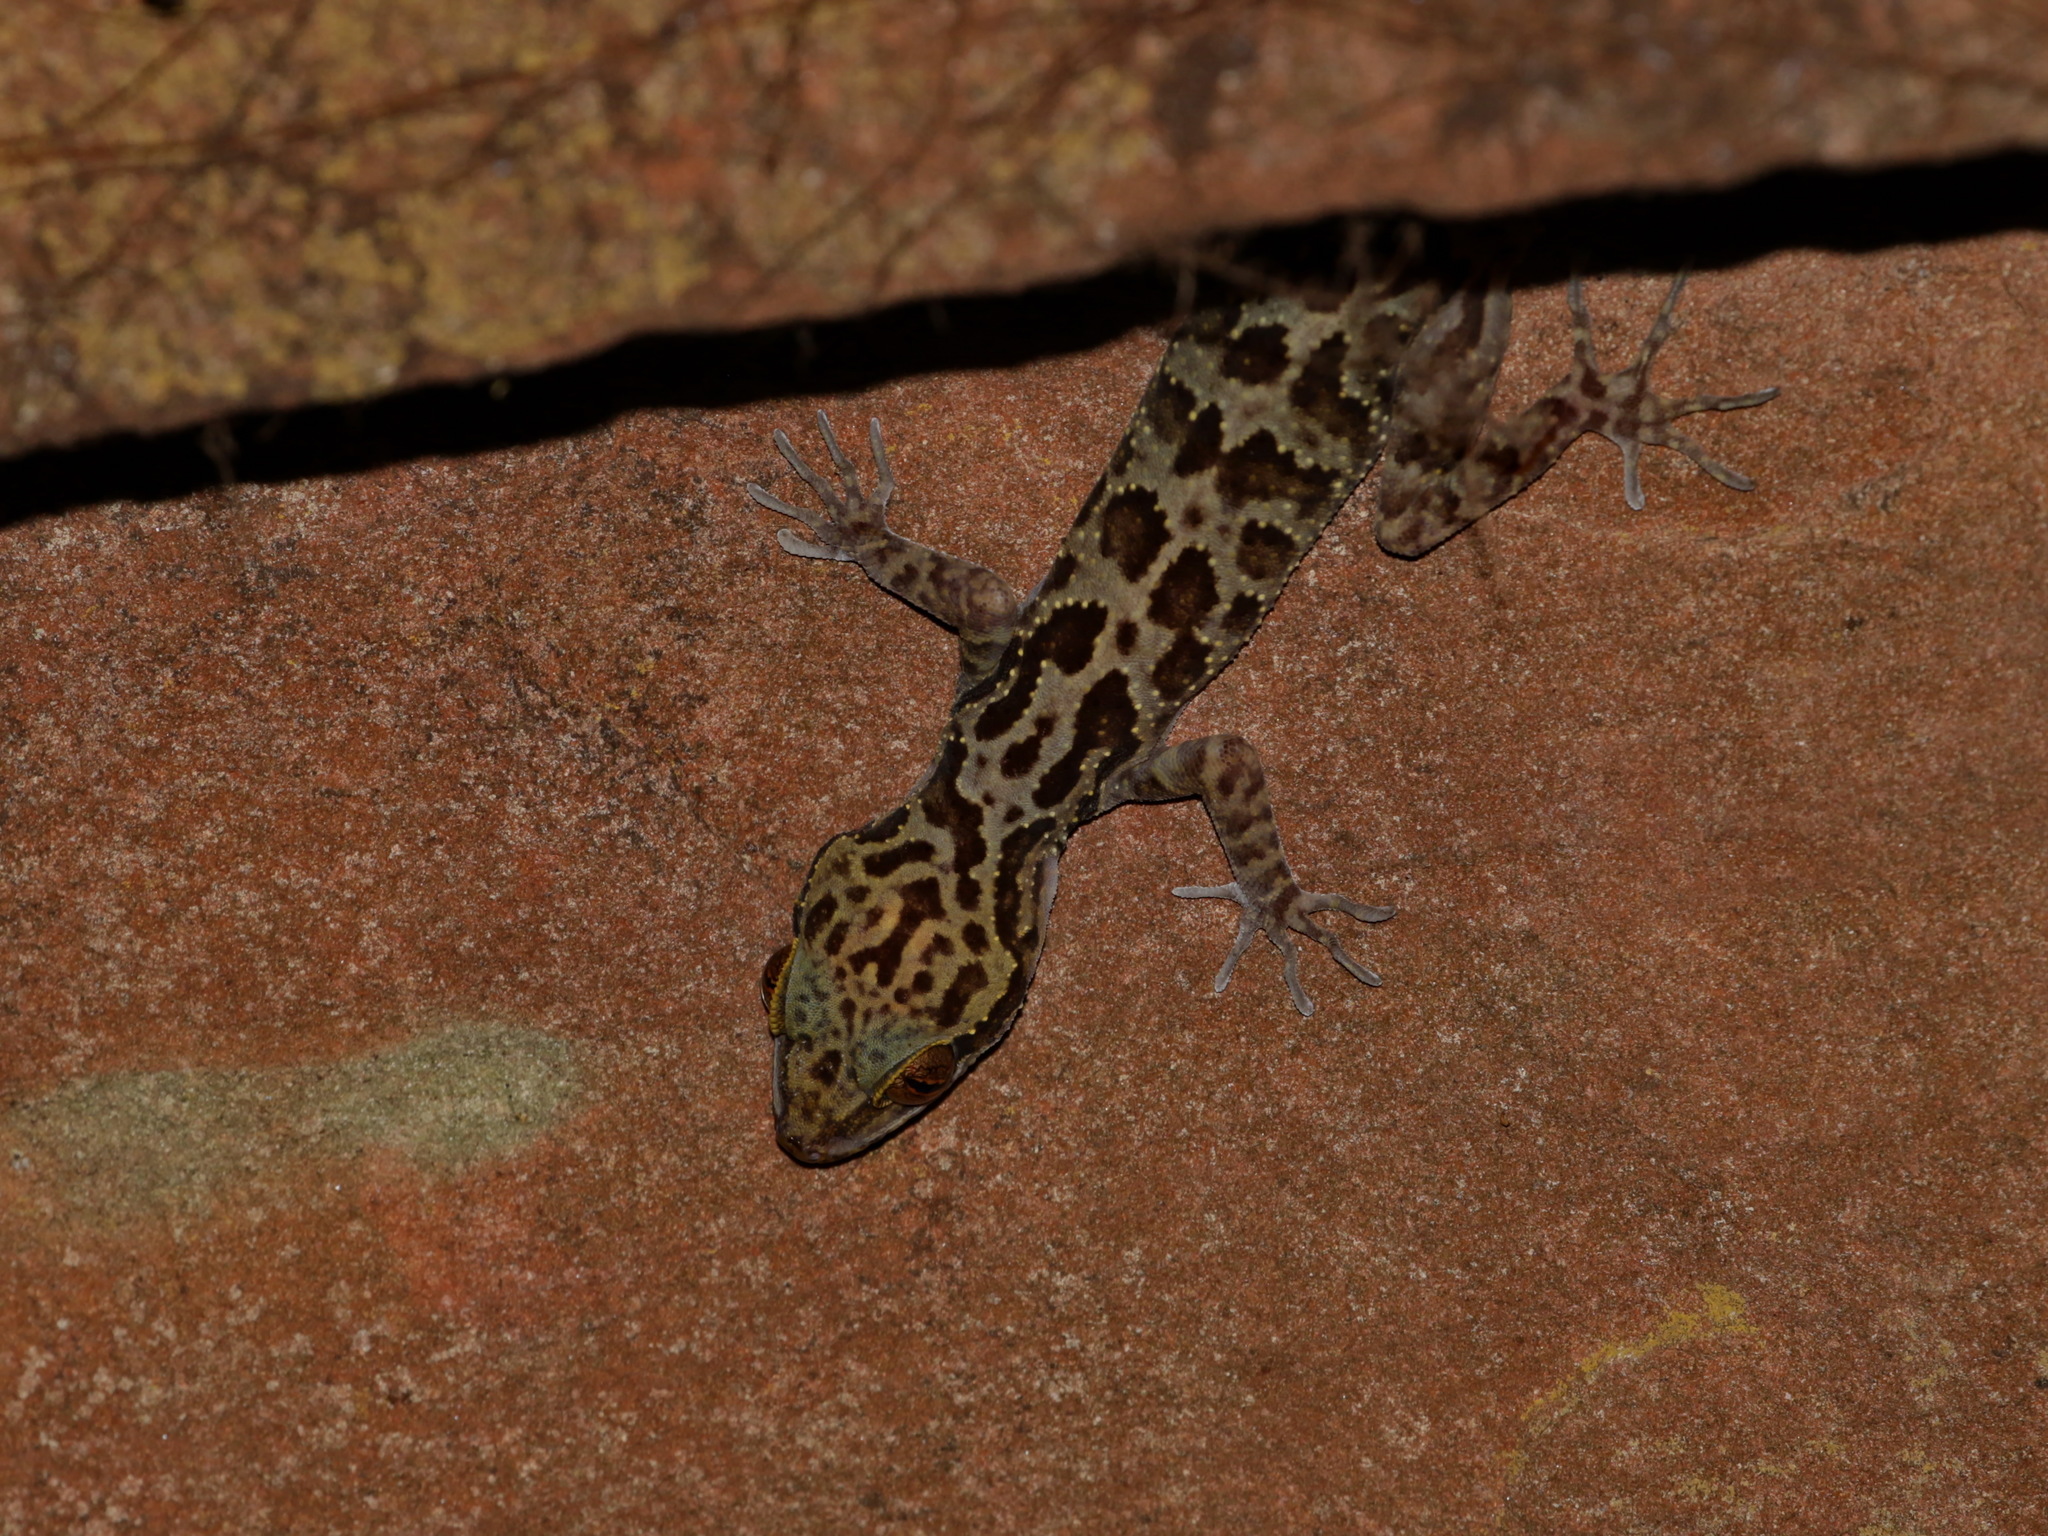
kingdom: Animalia
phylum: Chordata
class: Squamata
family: Gekkonidae
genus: Cyrtodactylus
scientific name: Cyrtodactylus jarujini
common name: Jarujin’s forest gecko
